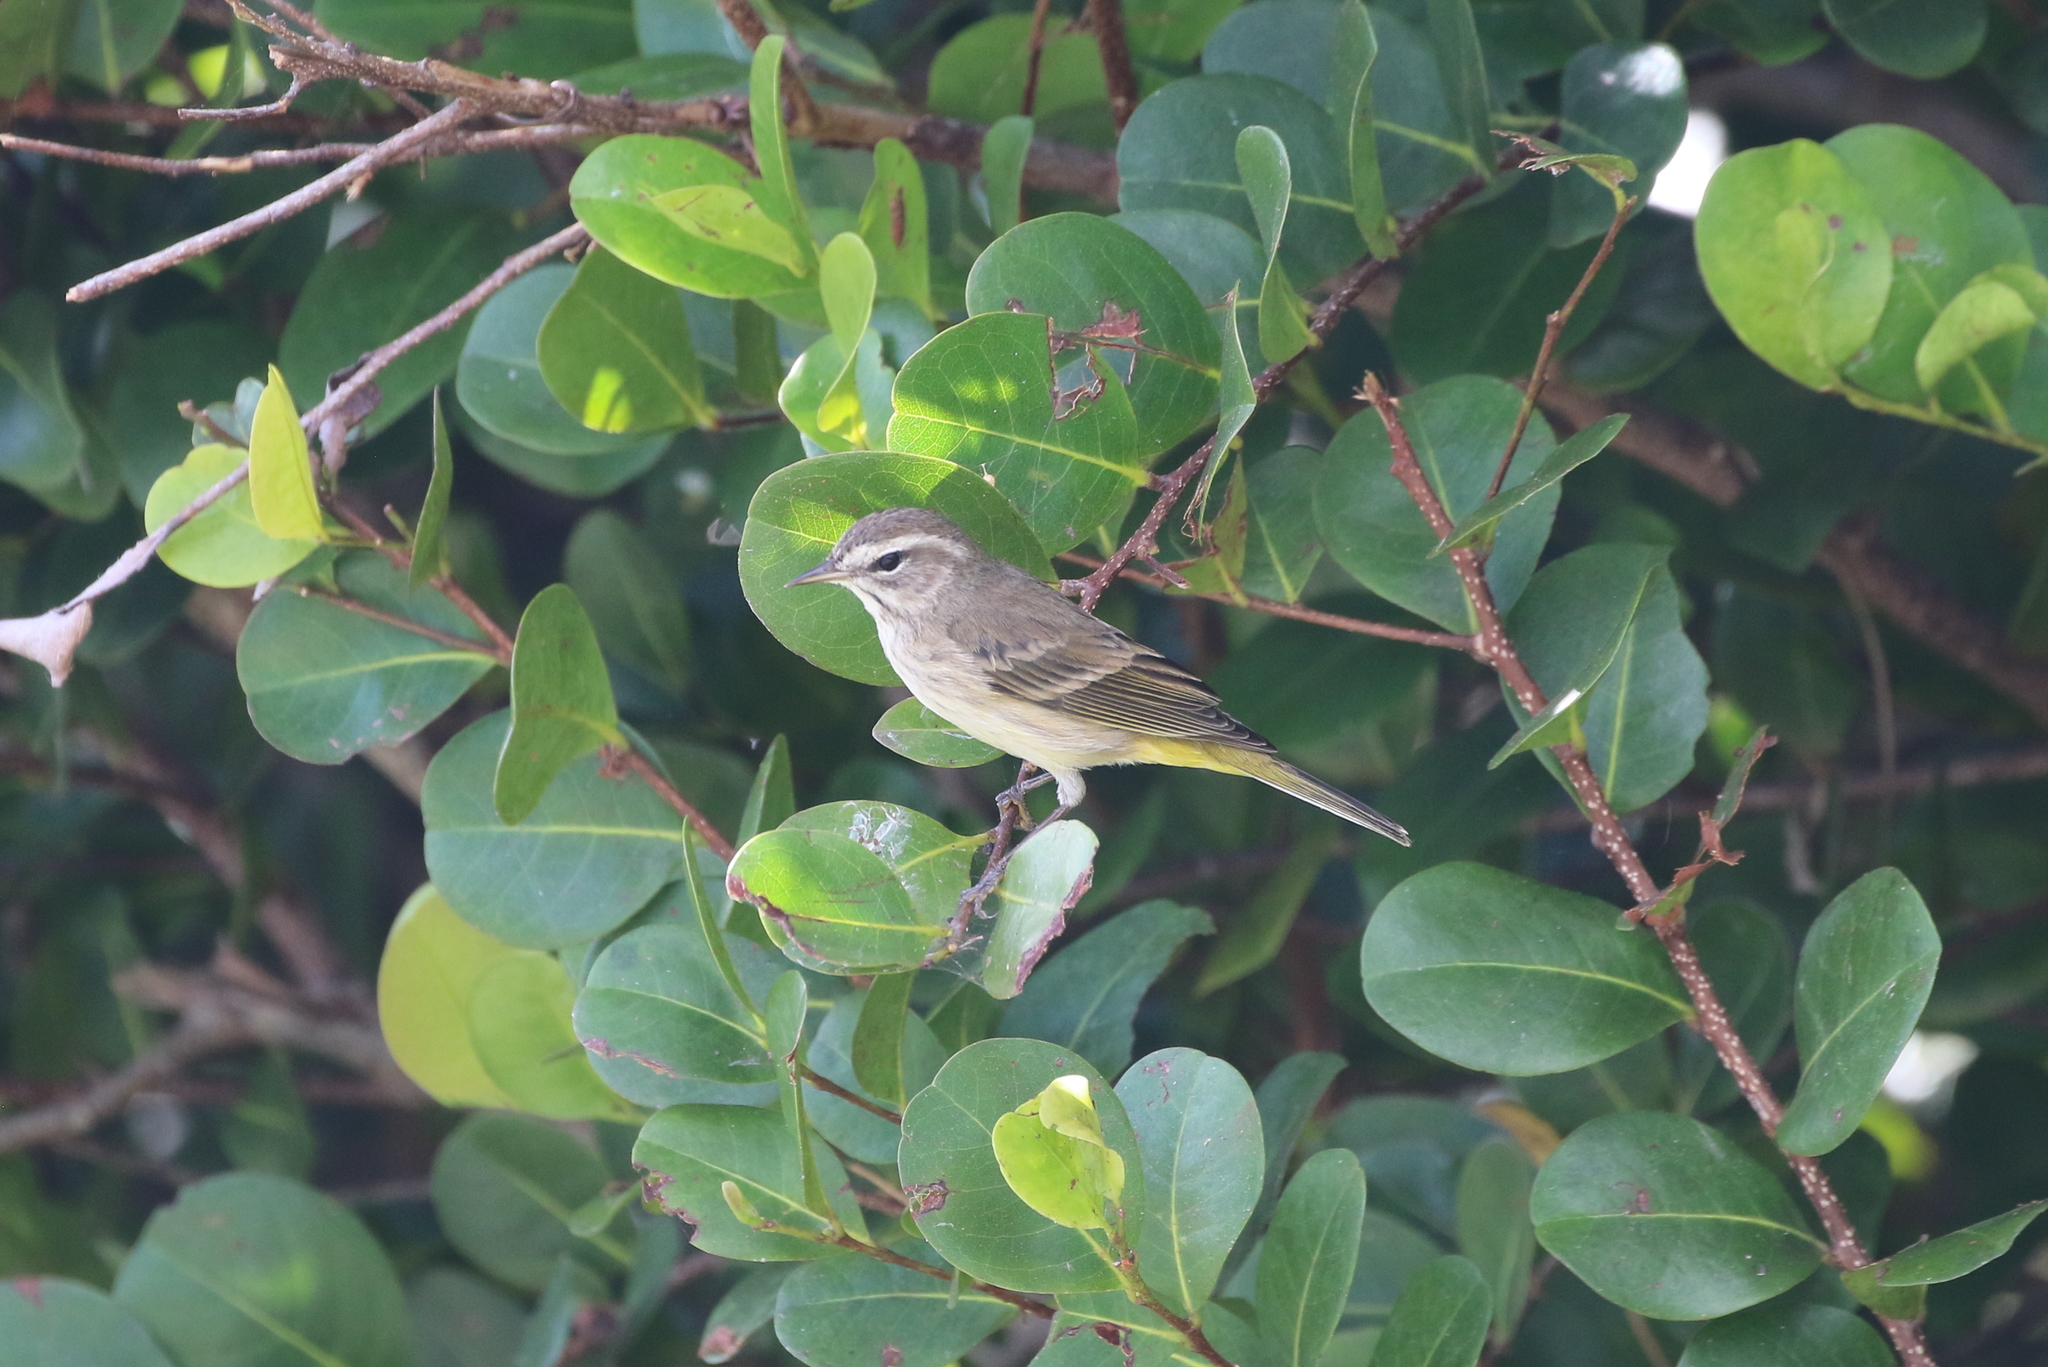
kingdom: Animalia
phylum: Chordata
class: Aves
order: Passeriformes
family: Parulidae
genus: Setophaga
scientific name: Setophaga palmarum
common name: Palm warbler
